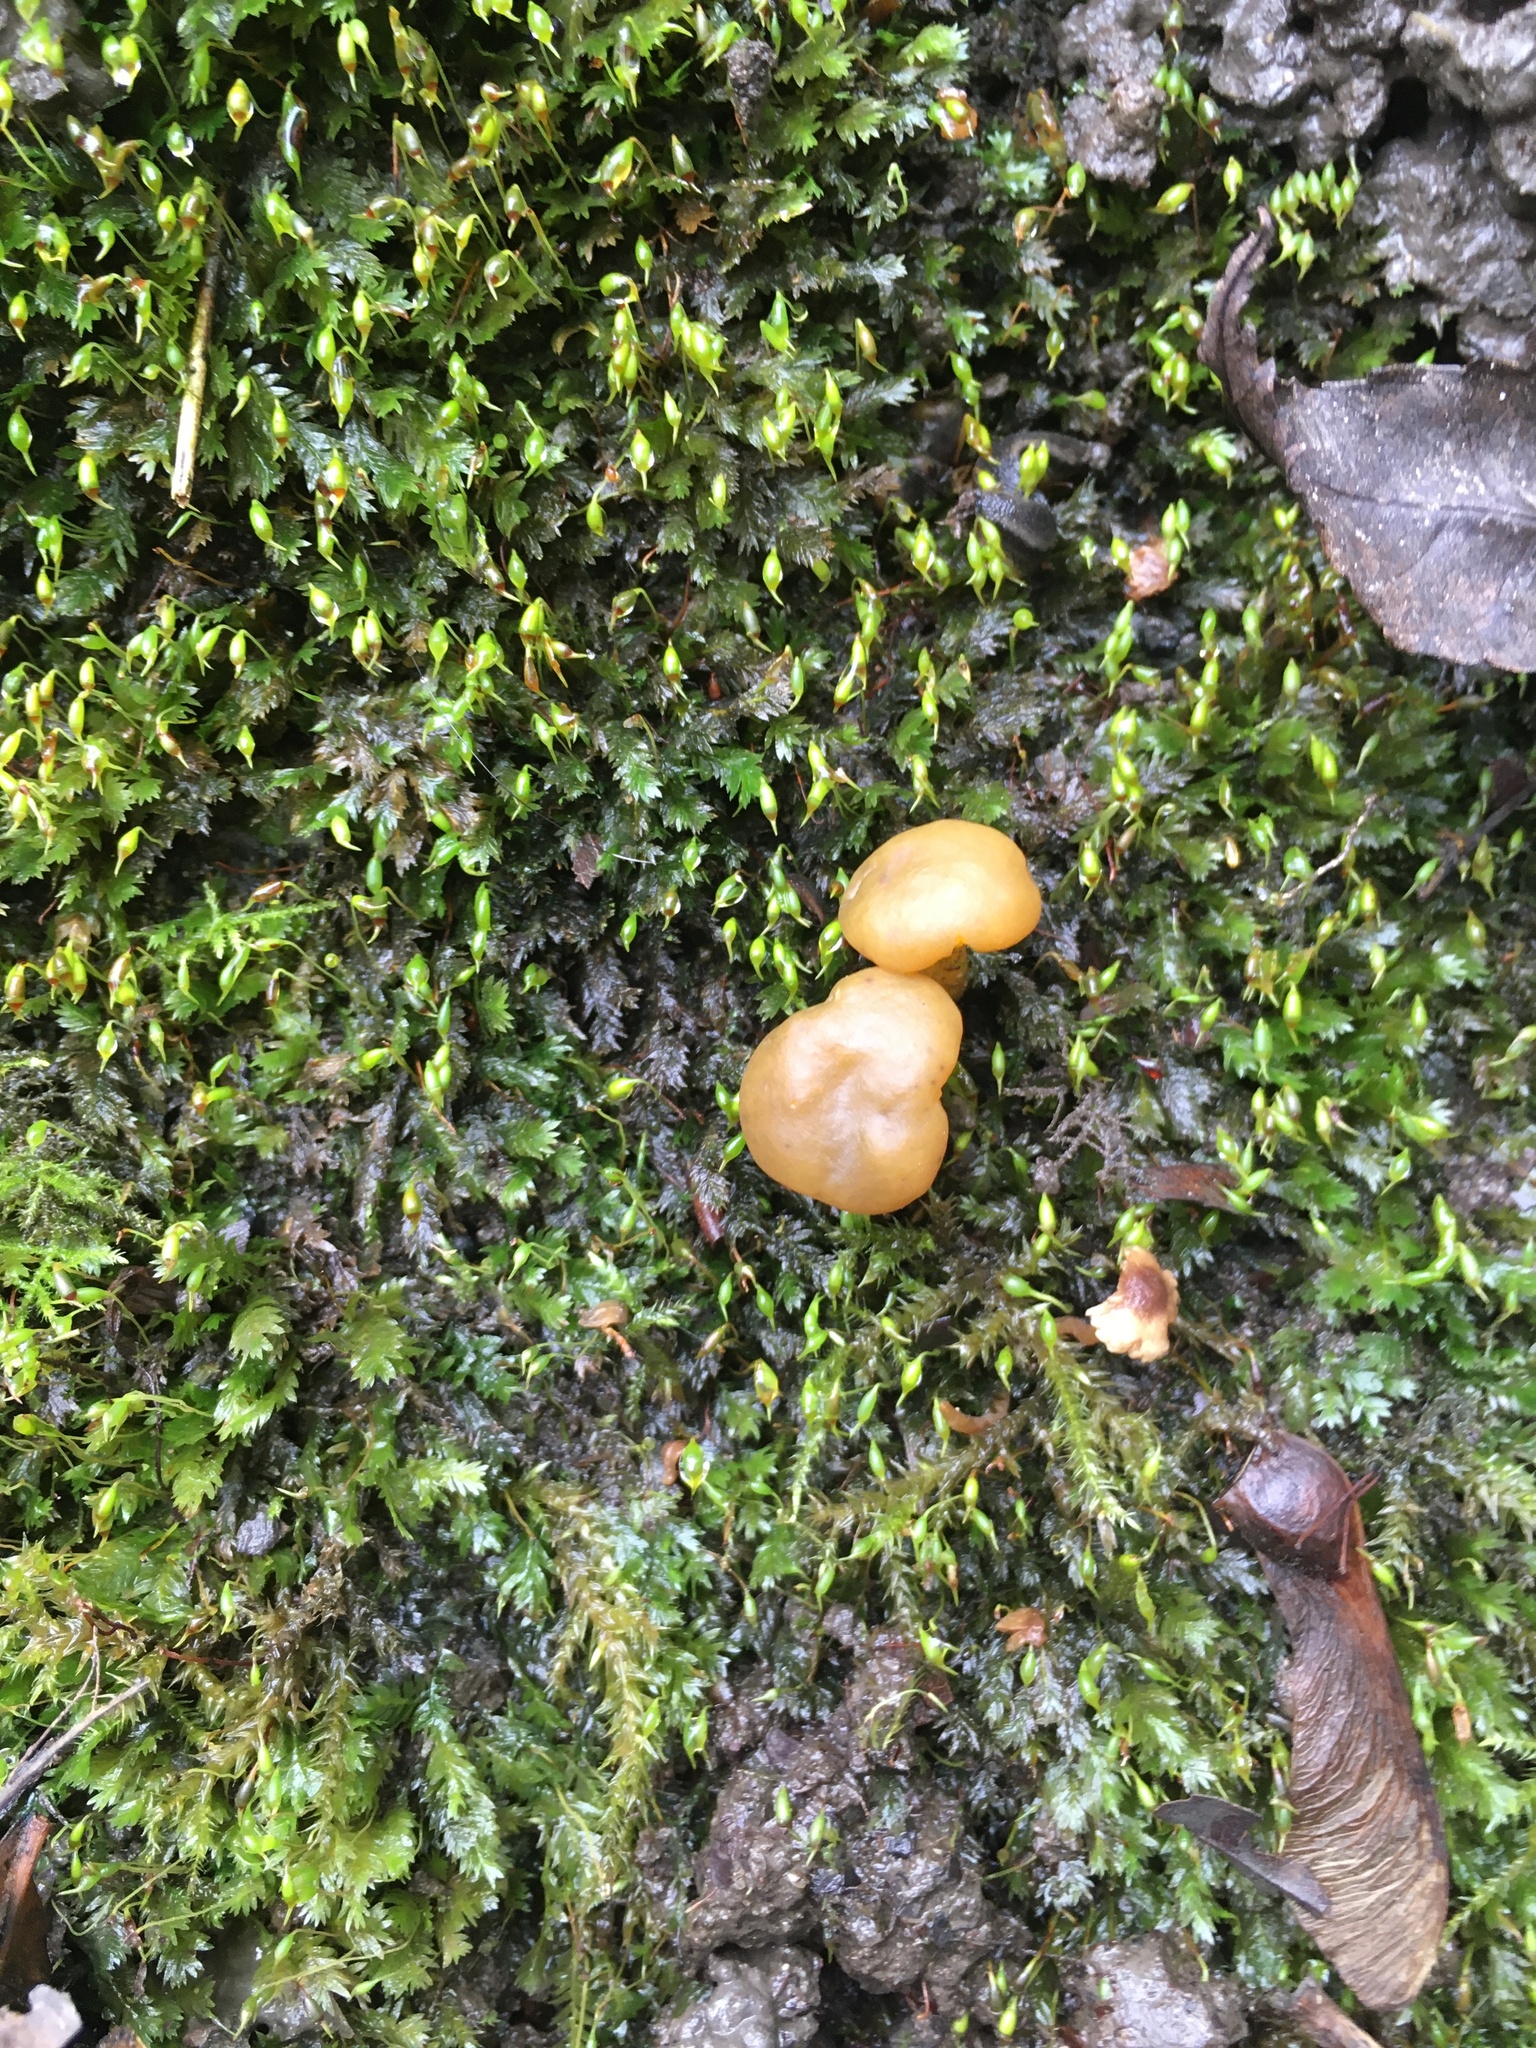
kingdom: Fungi
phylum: Ascomycota
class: Leotiomycetes
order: Leotiales
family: Leotiaceae
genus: Leotia
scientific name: Leotia lubrica
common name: Jellybaby
